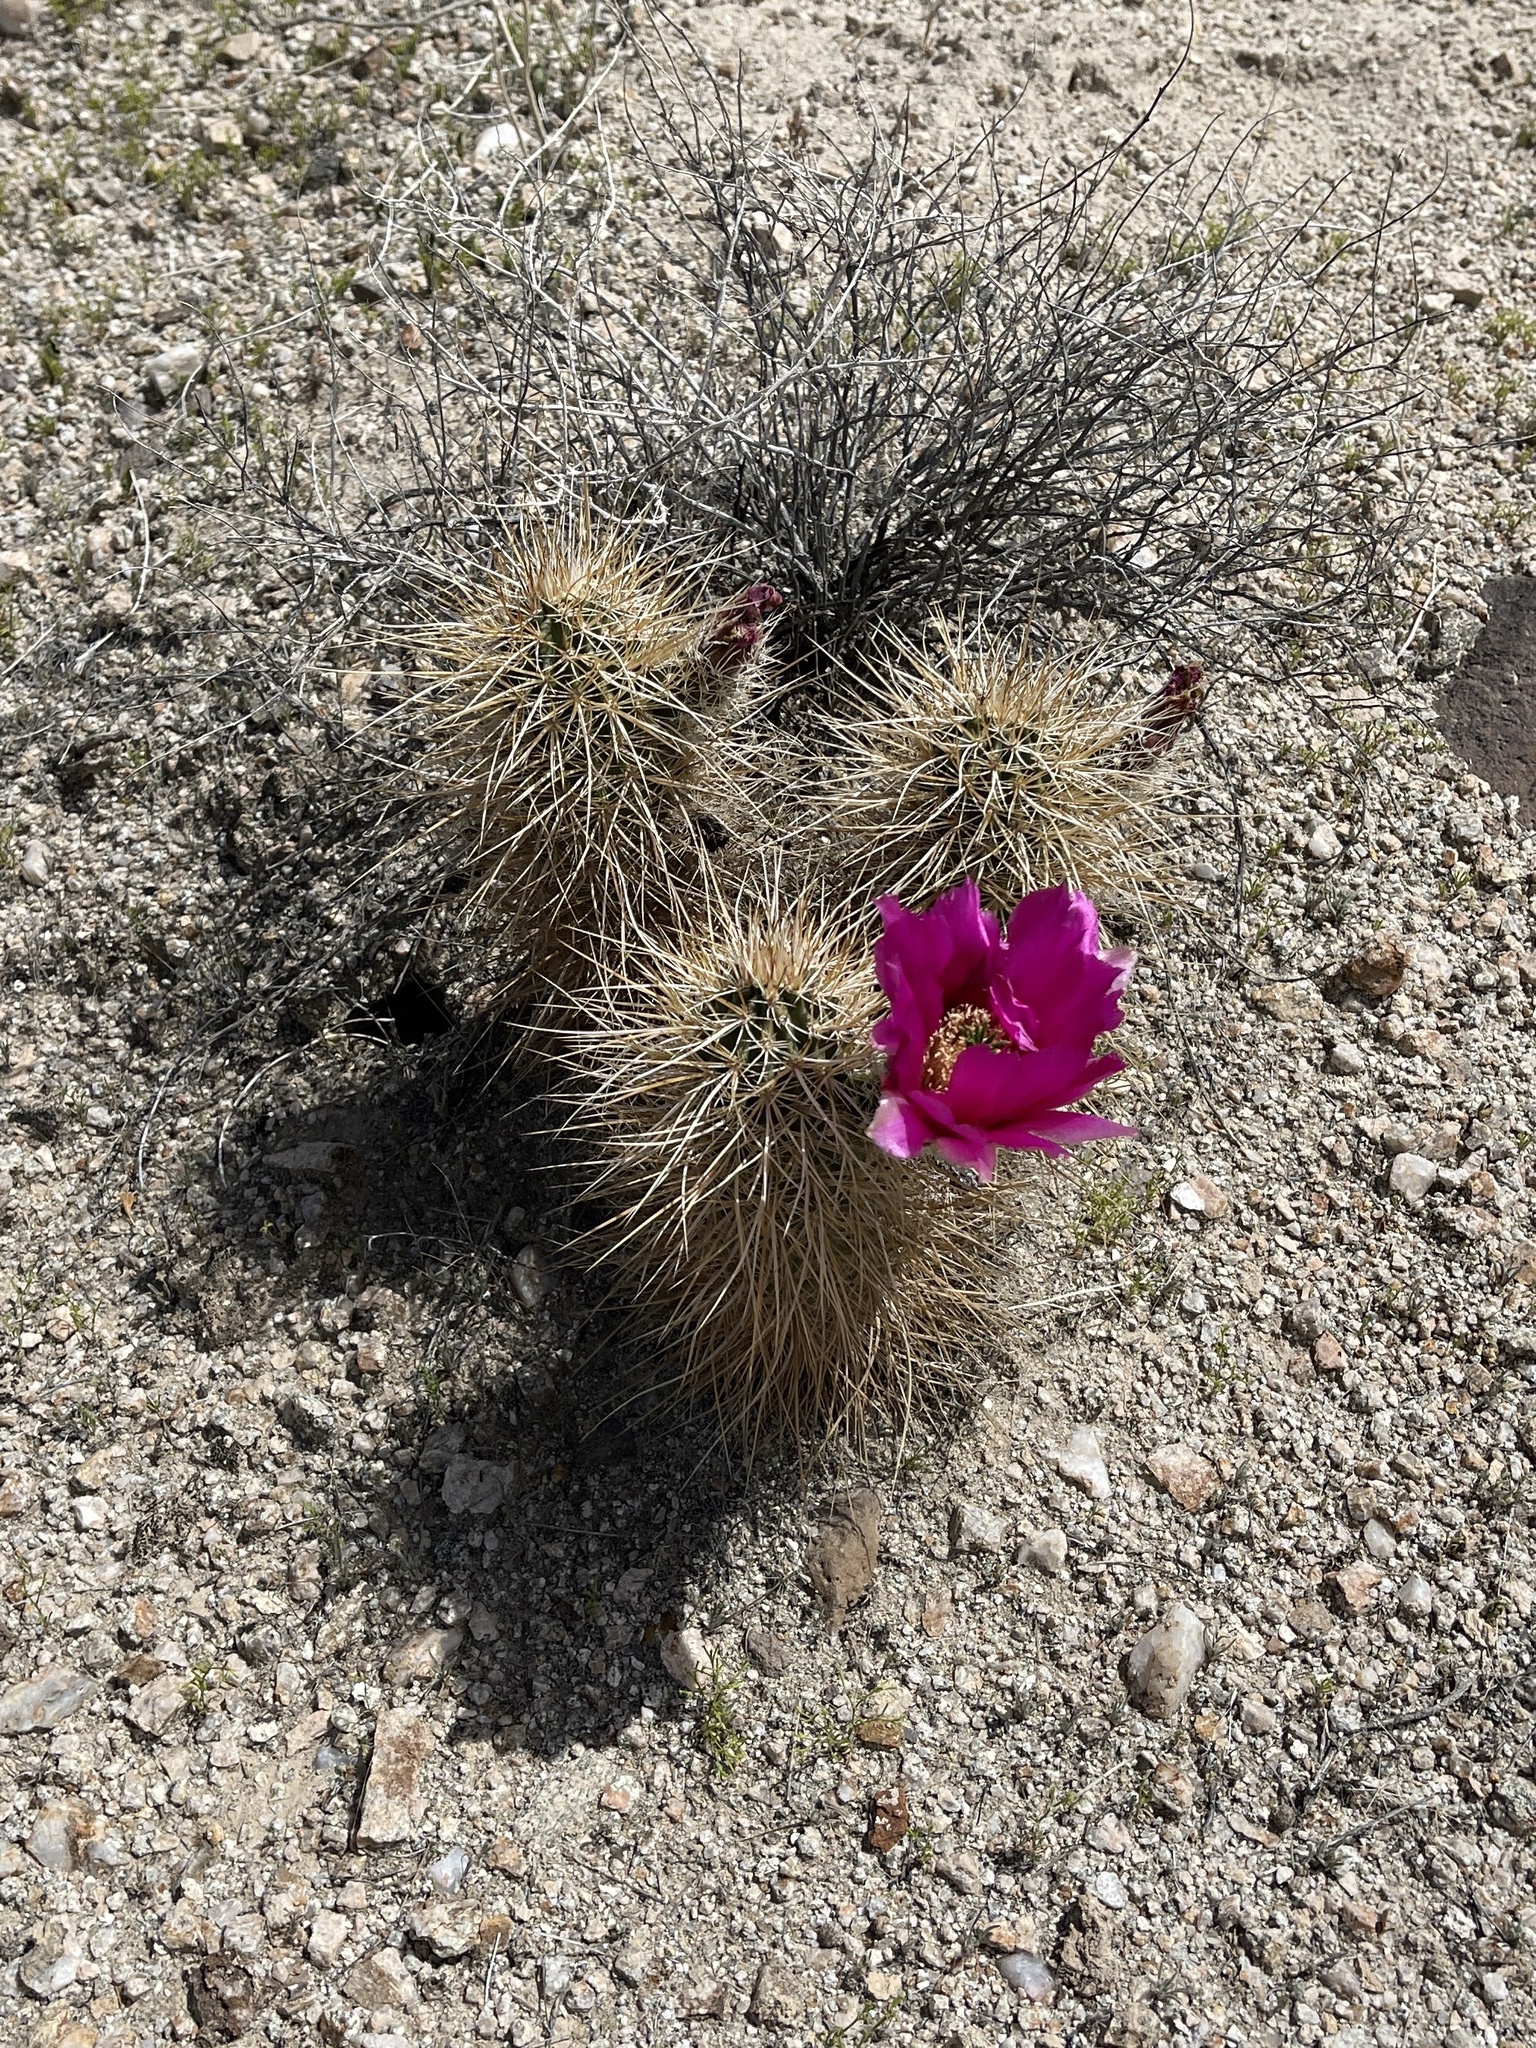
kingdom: Plantae
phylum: Tracheophyta
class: Magnoliopsida
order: Caryophyllales
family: Cactaceae
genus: Echinocereus
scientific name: Echinocereus engelmannii
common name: Engelmann's hedgehog cactus
